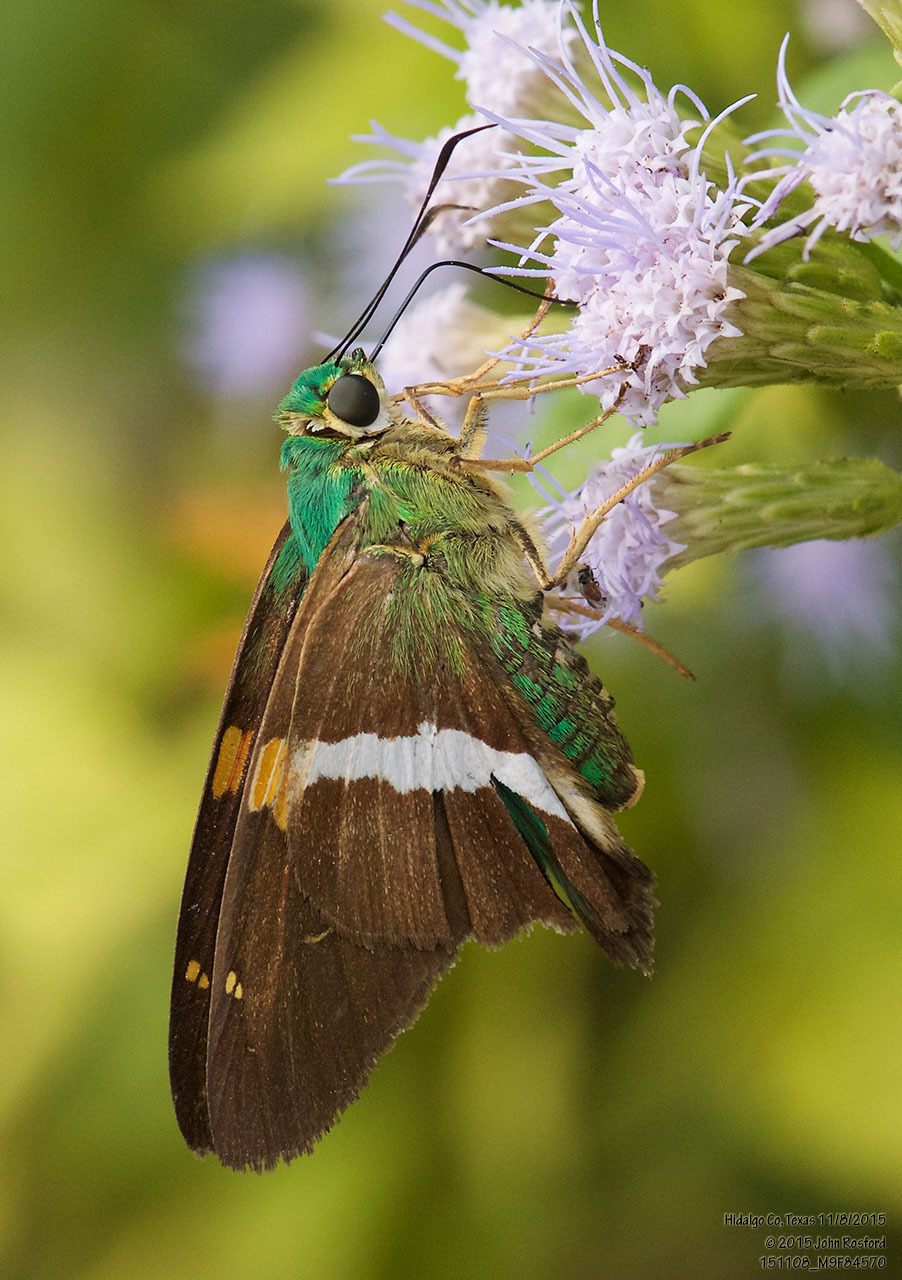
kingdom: Animalia
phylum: Arthropoda
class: Insecta
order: Lepidoptera
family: Hesperiidae
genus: Aguna
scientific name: Aguna claxon
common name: Emerald aguna
